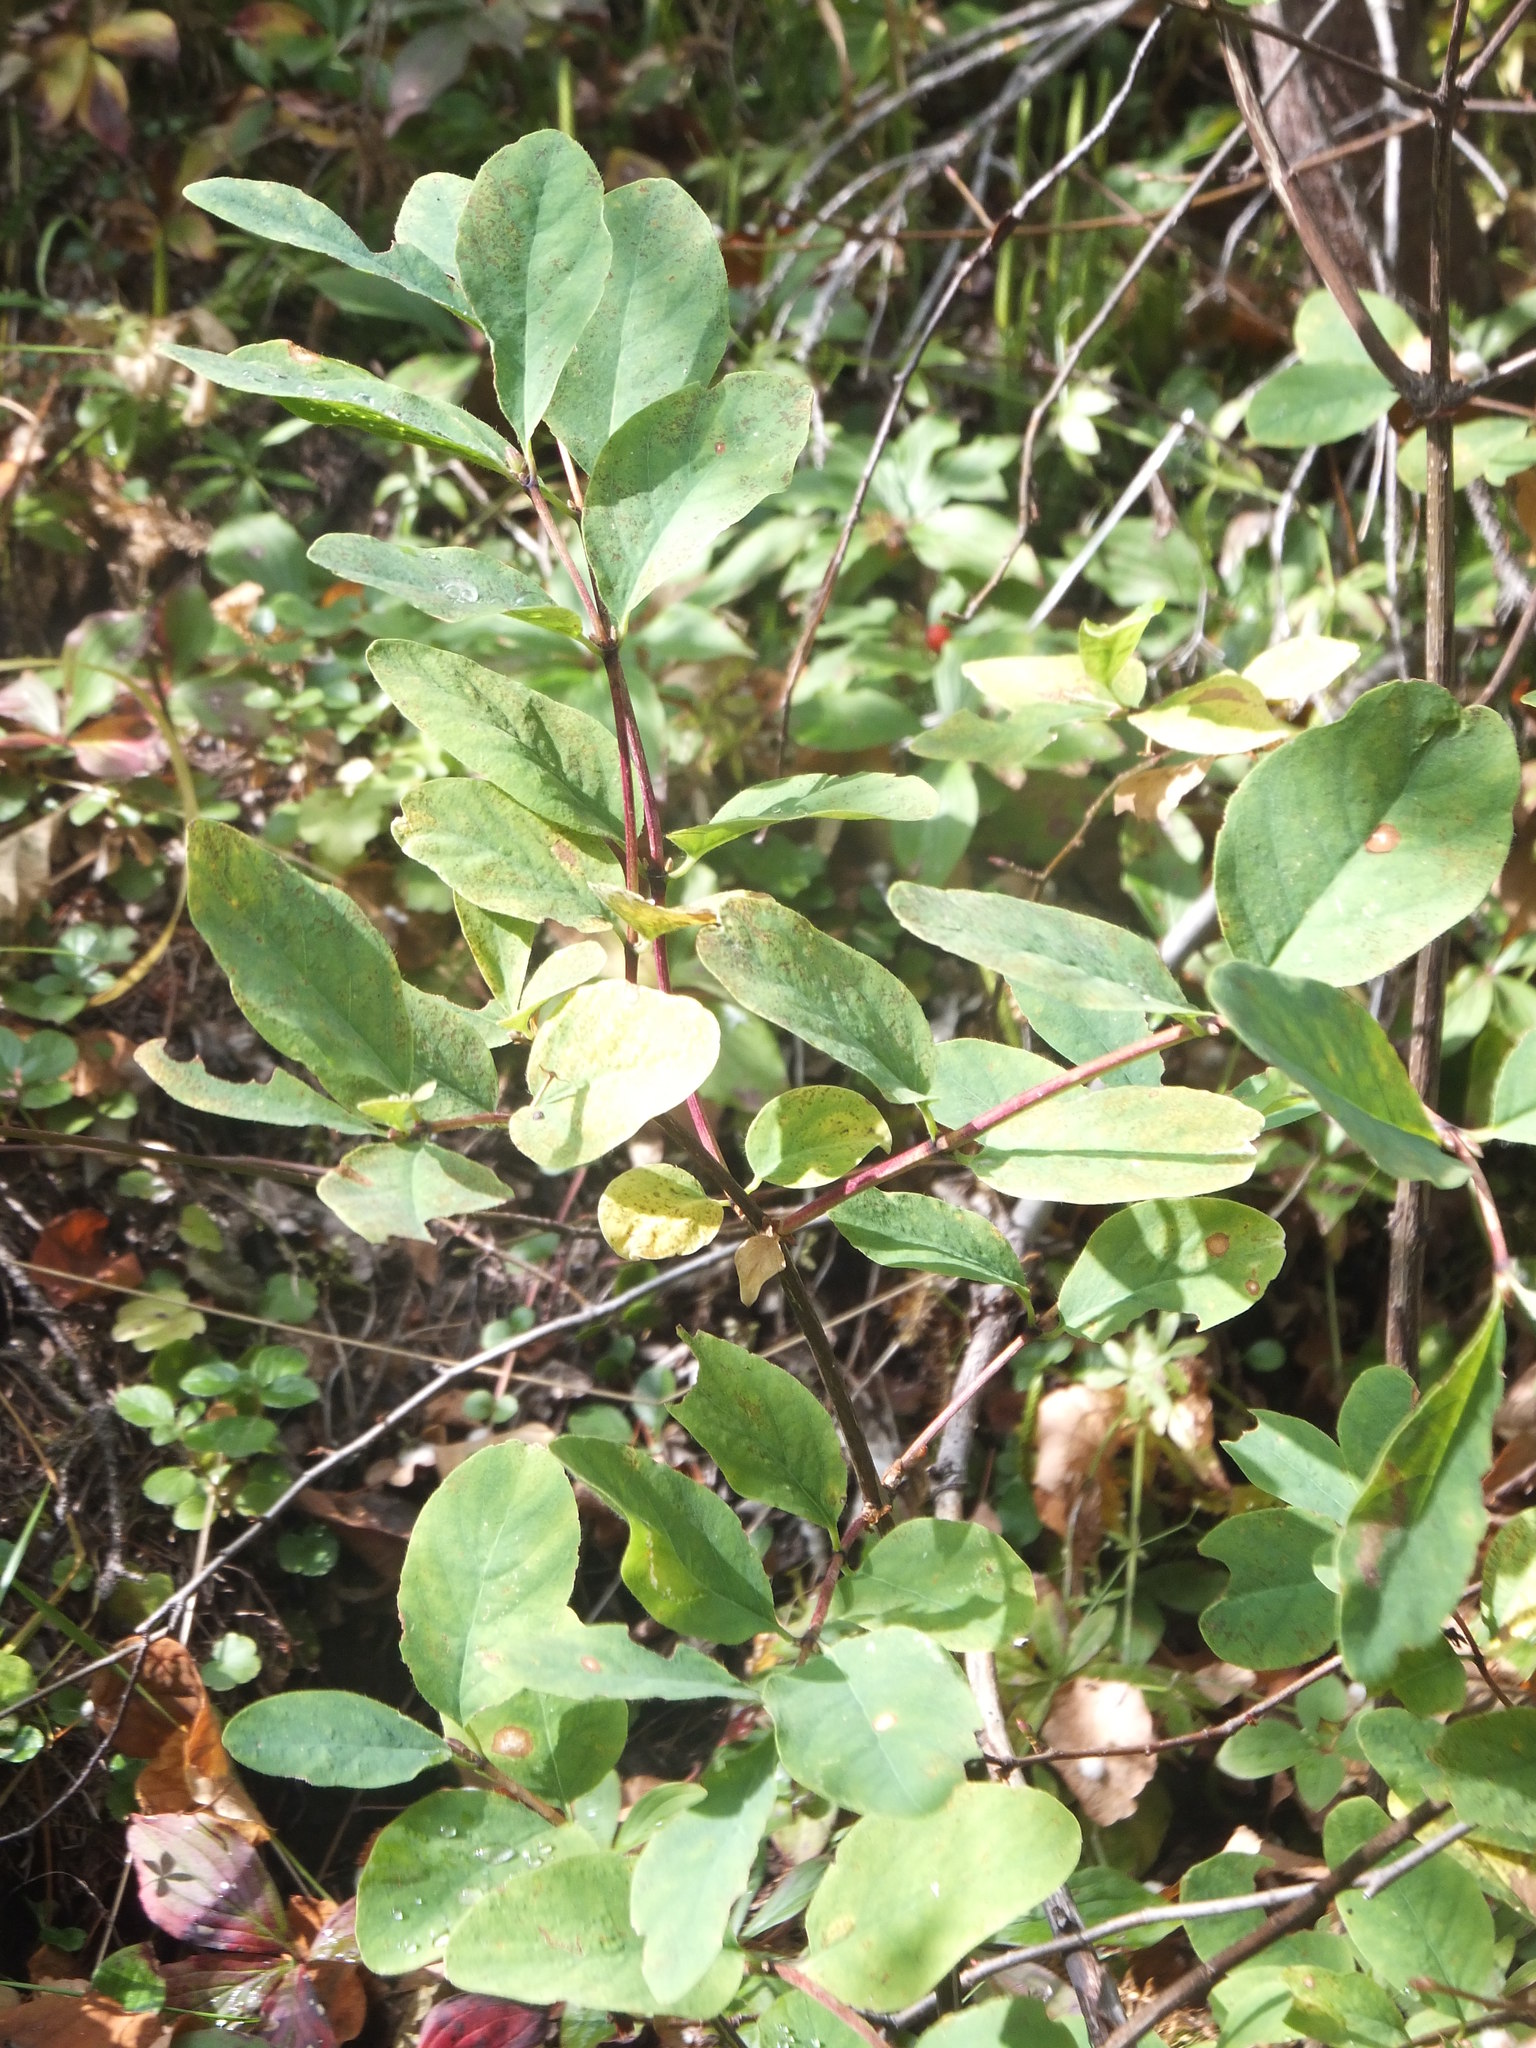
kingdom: Plantae
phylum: Tracheophyta
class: Magnoliopsida
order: Dipsacales
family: Caprifoliaceae
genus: Lonicera
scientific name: Lonicera utahensis
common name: Utah honeysuckle
